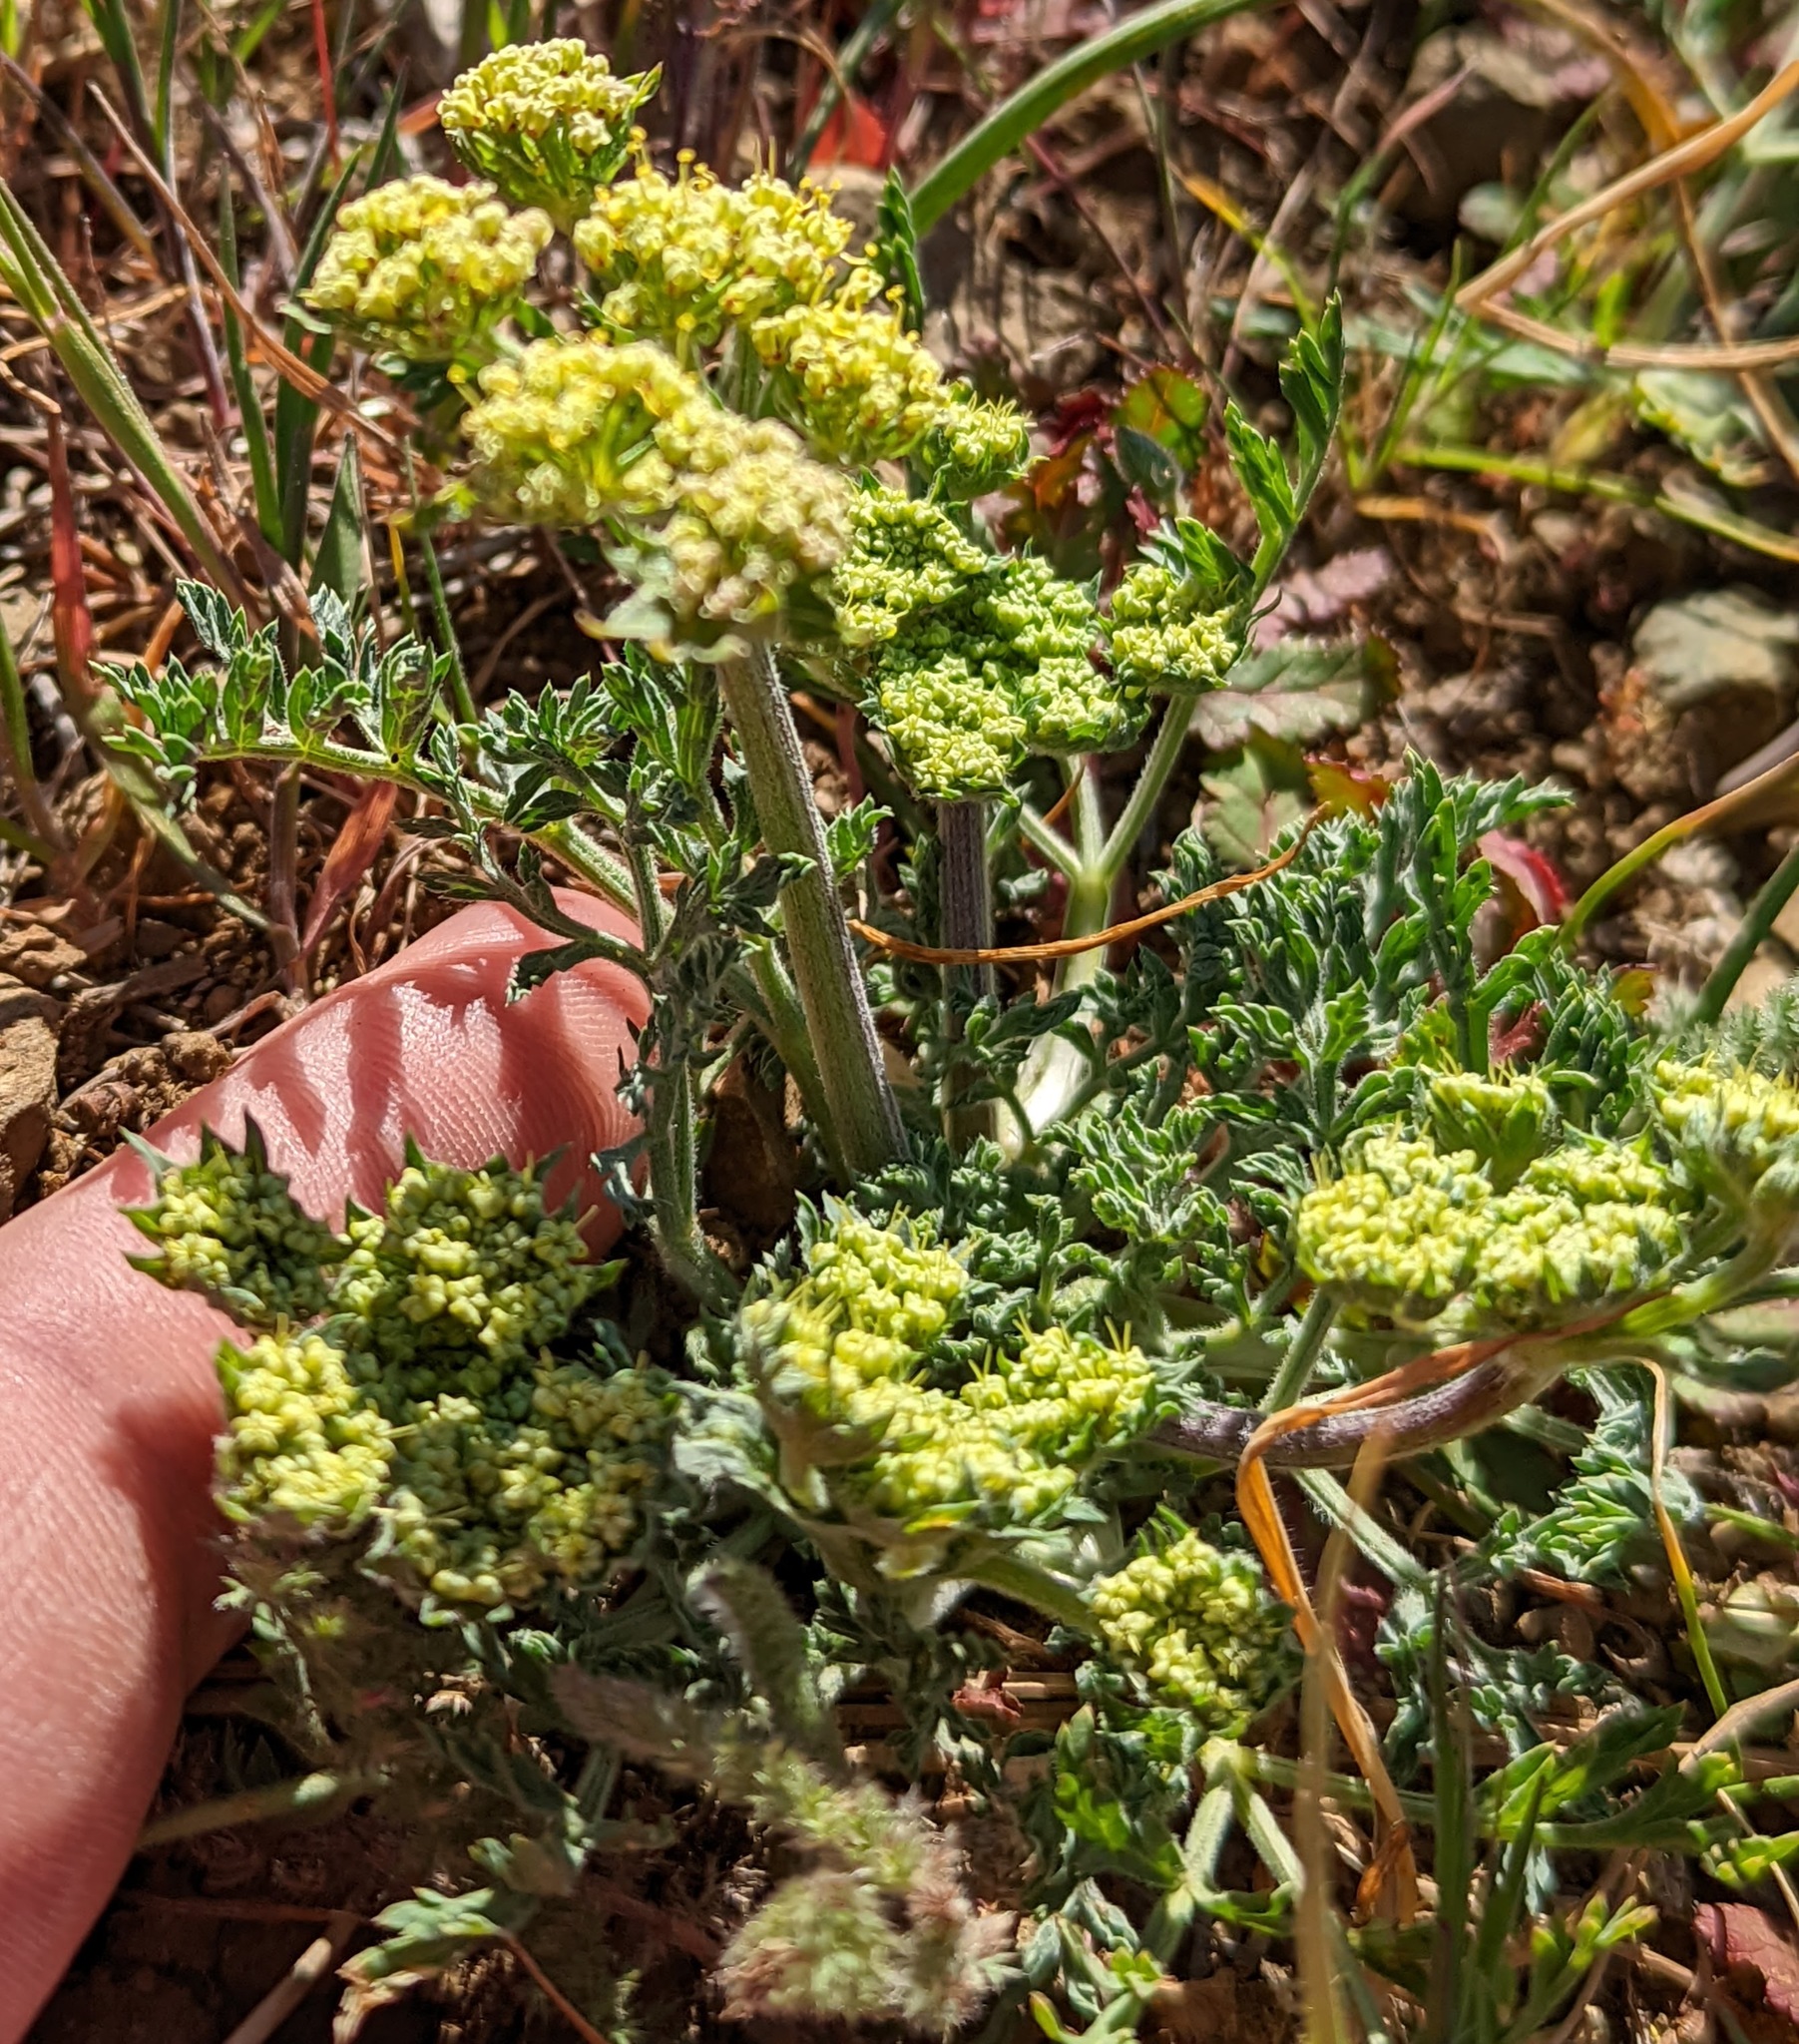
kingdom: Plantae
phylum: Tracheophyta
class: Magnoliopsida
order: Apiales
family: Apiaceae
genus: Lomatium
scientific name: Lomatium macrocarpum
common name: Big-seed biscuitroot
